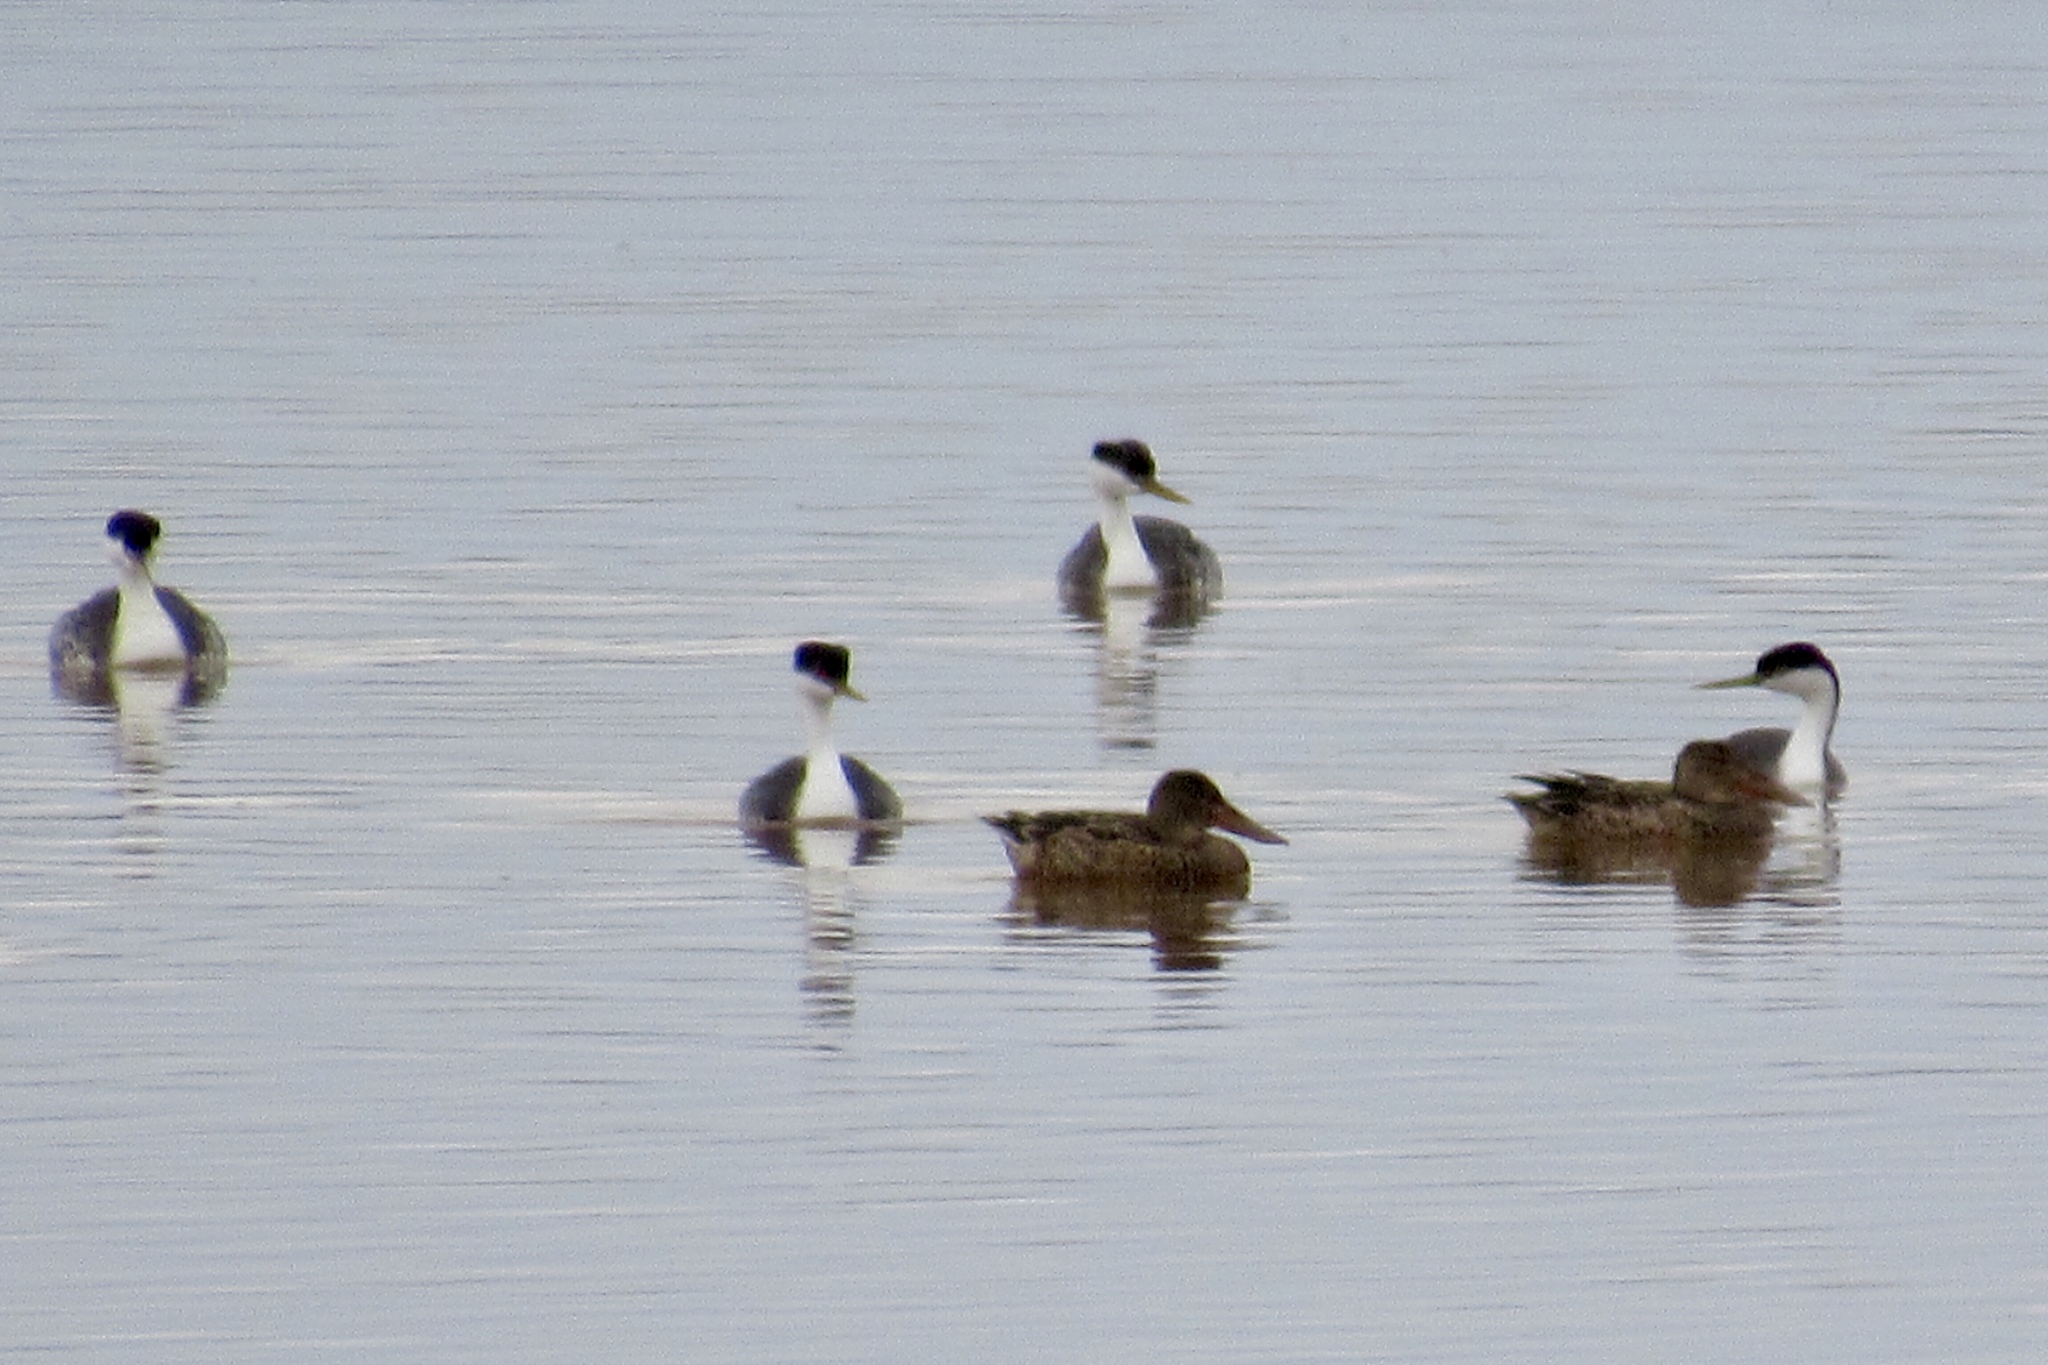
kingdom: Animalia
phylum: Chordata
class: Aves
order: Podicipediformes
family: Podicipedidae
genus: Aechmophorus
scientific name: Aechmophorus occidentalis
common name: Western grebe
